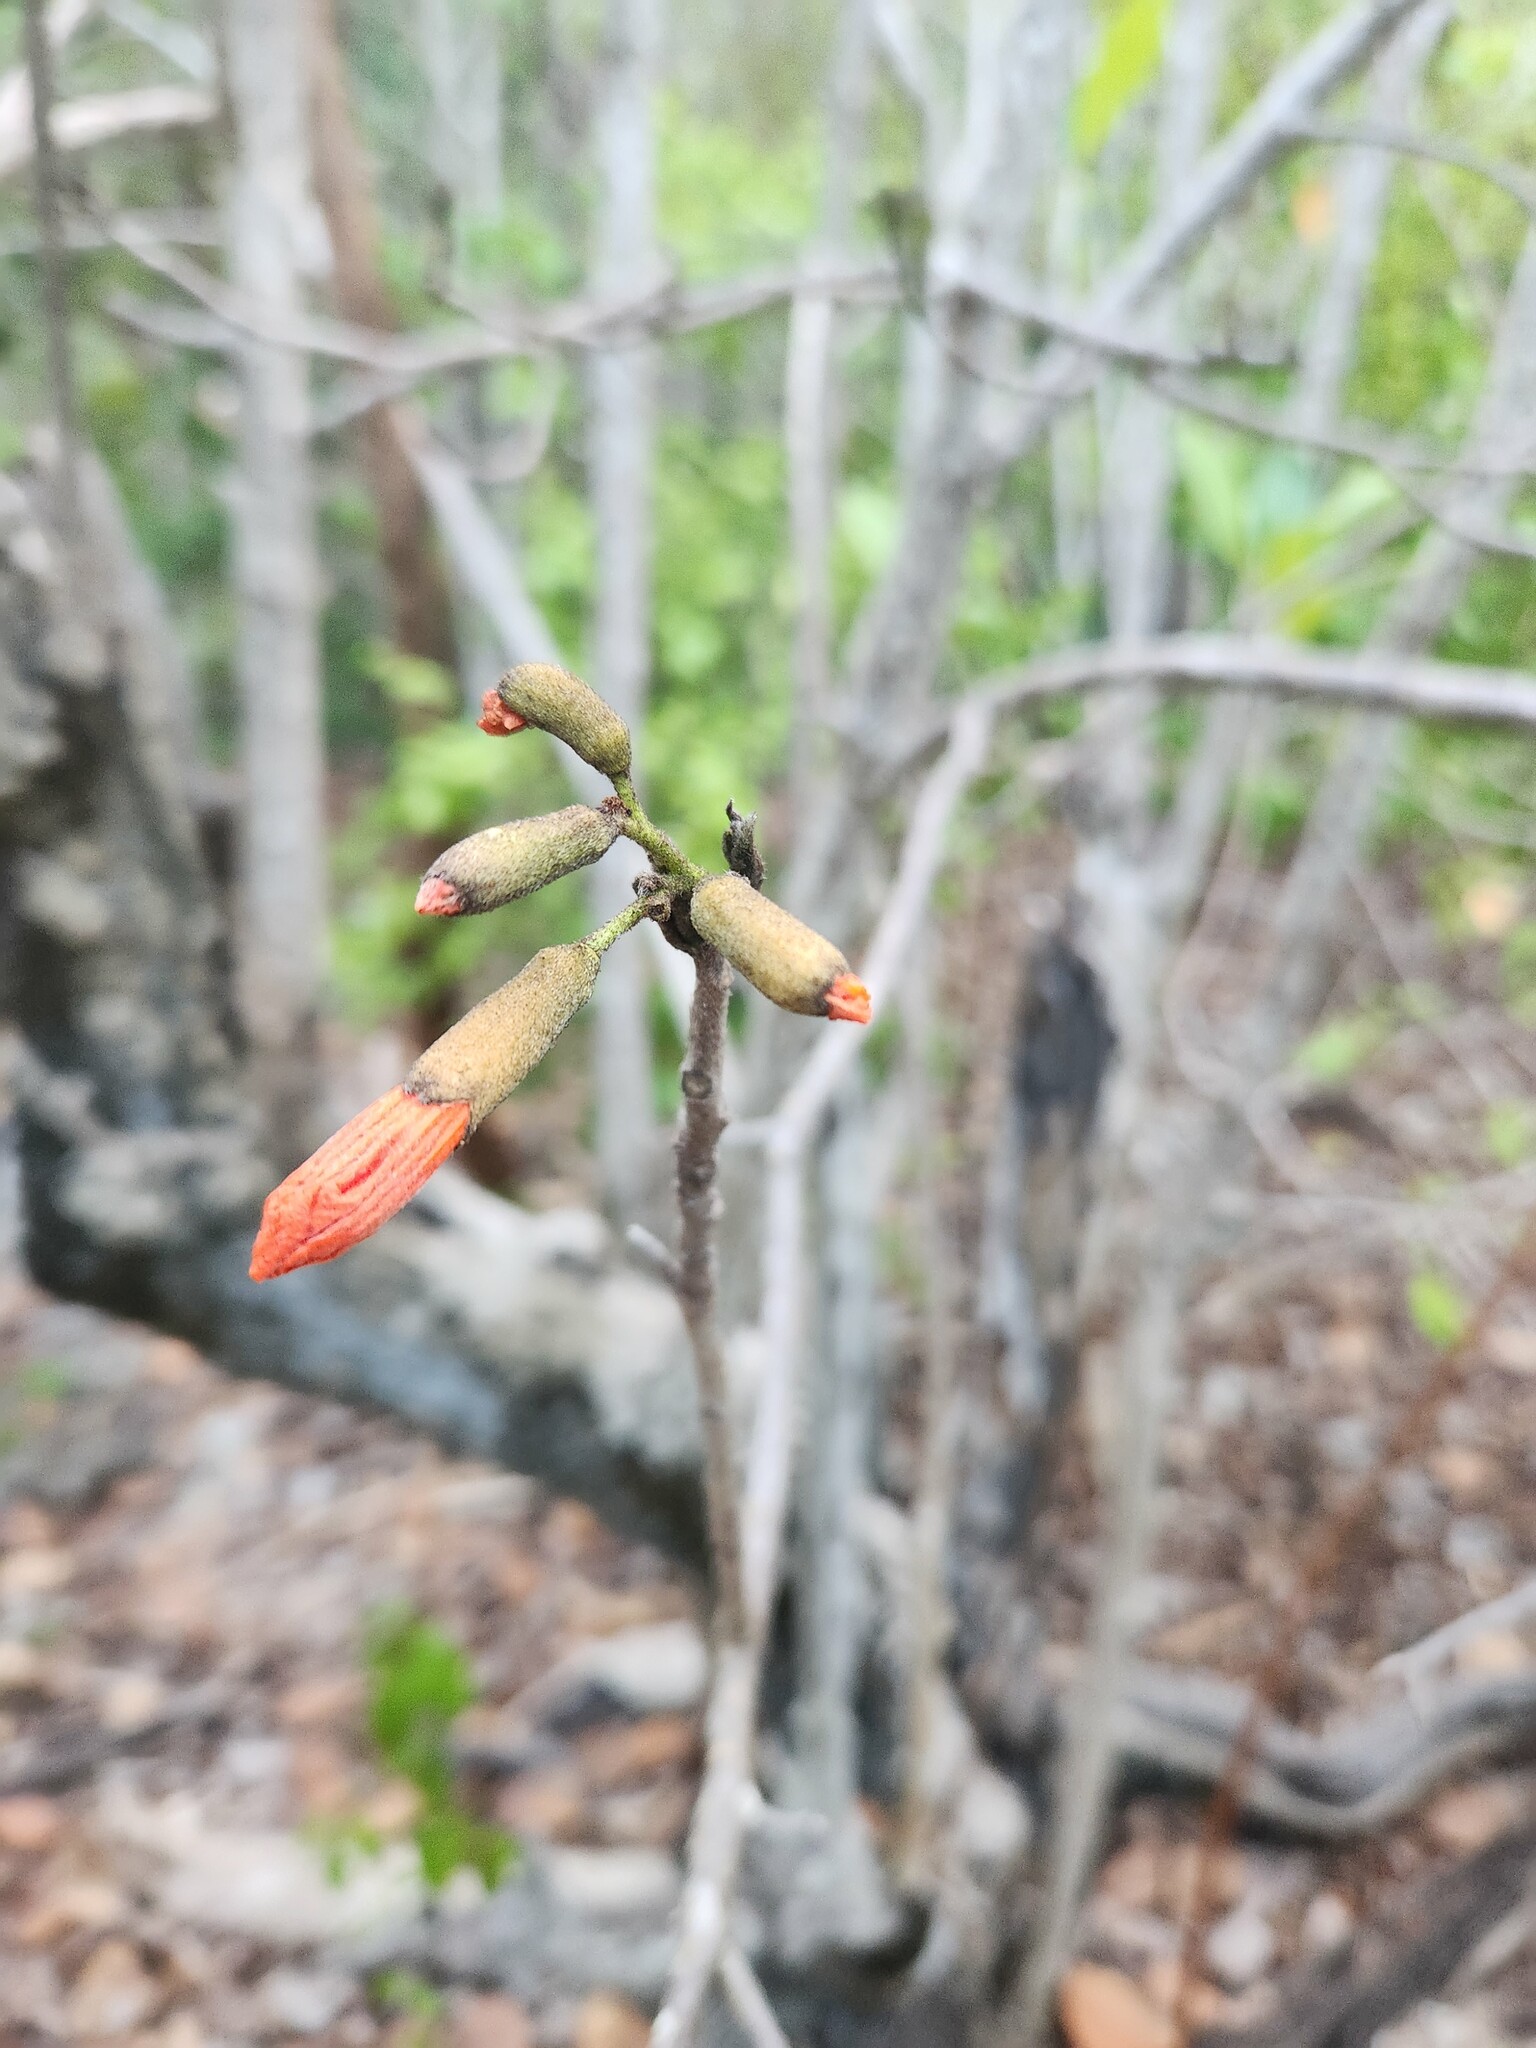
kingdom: Plantae
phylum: Tracheophyta
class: Magnoliopsida
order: Boraginales
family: Cordiaceae
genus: Cordia
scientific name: Cordia sebestena
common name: Largeleaf geigertree
